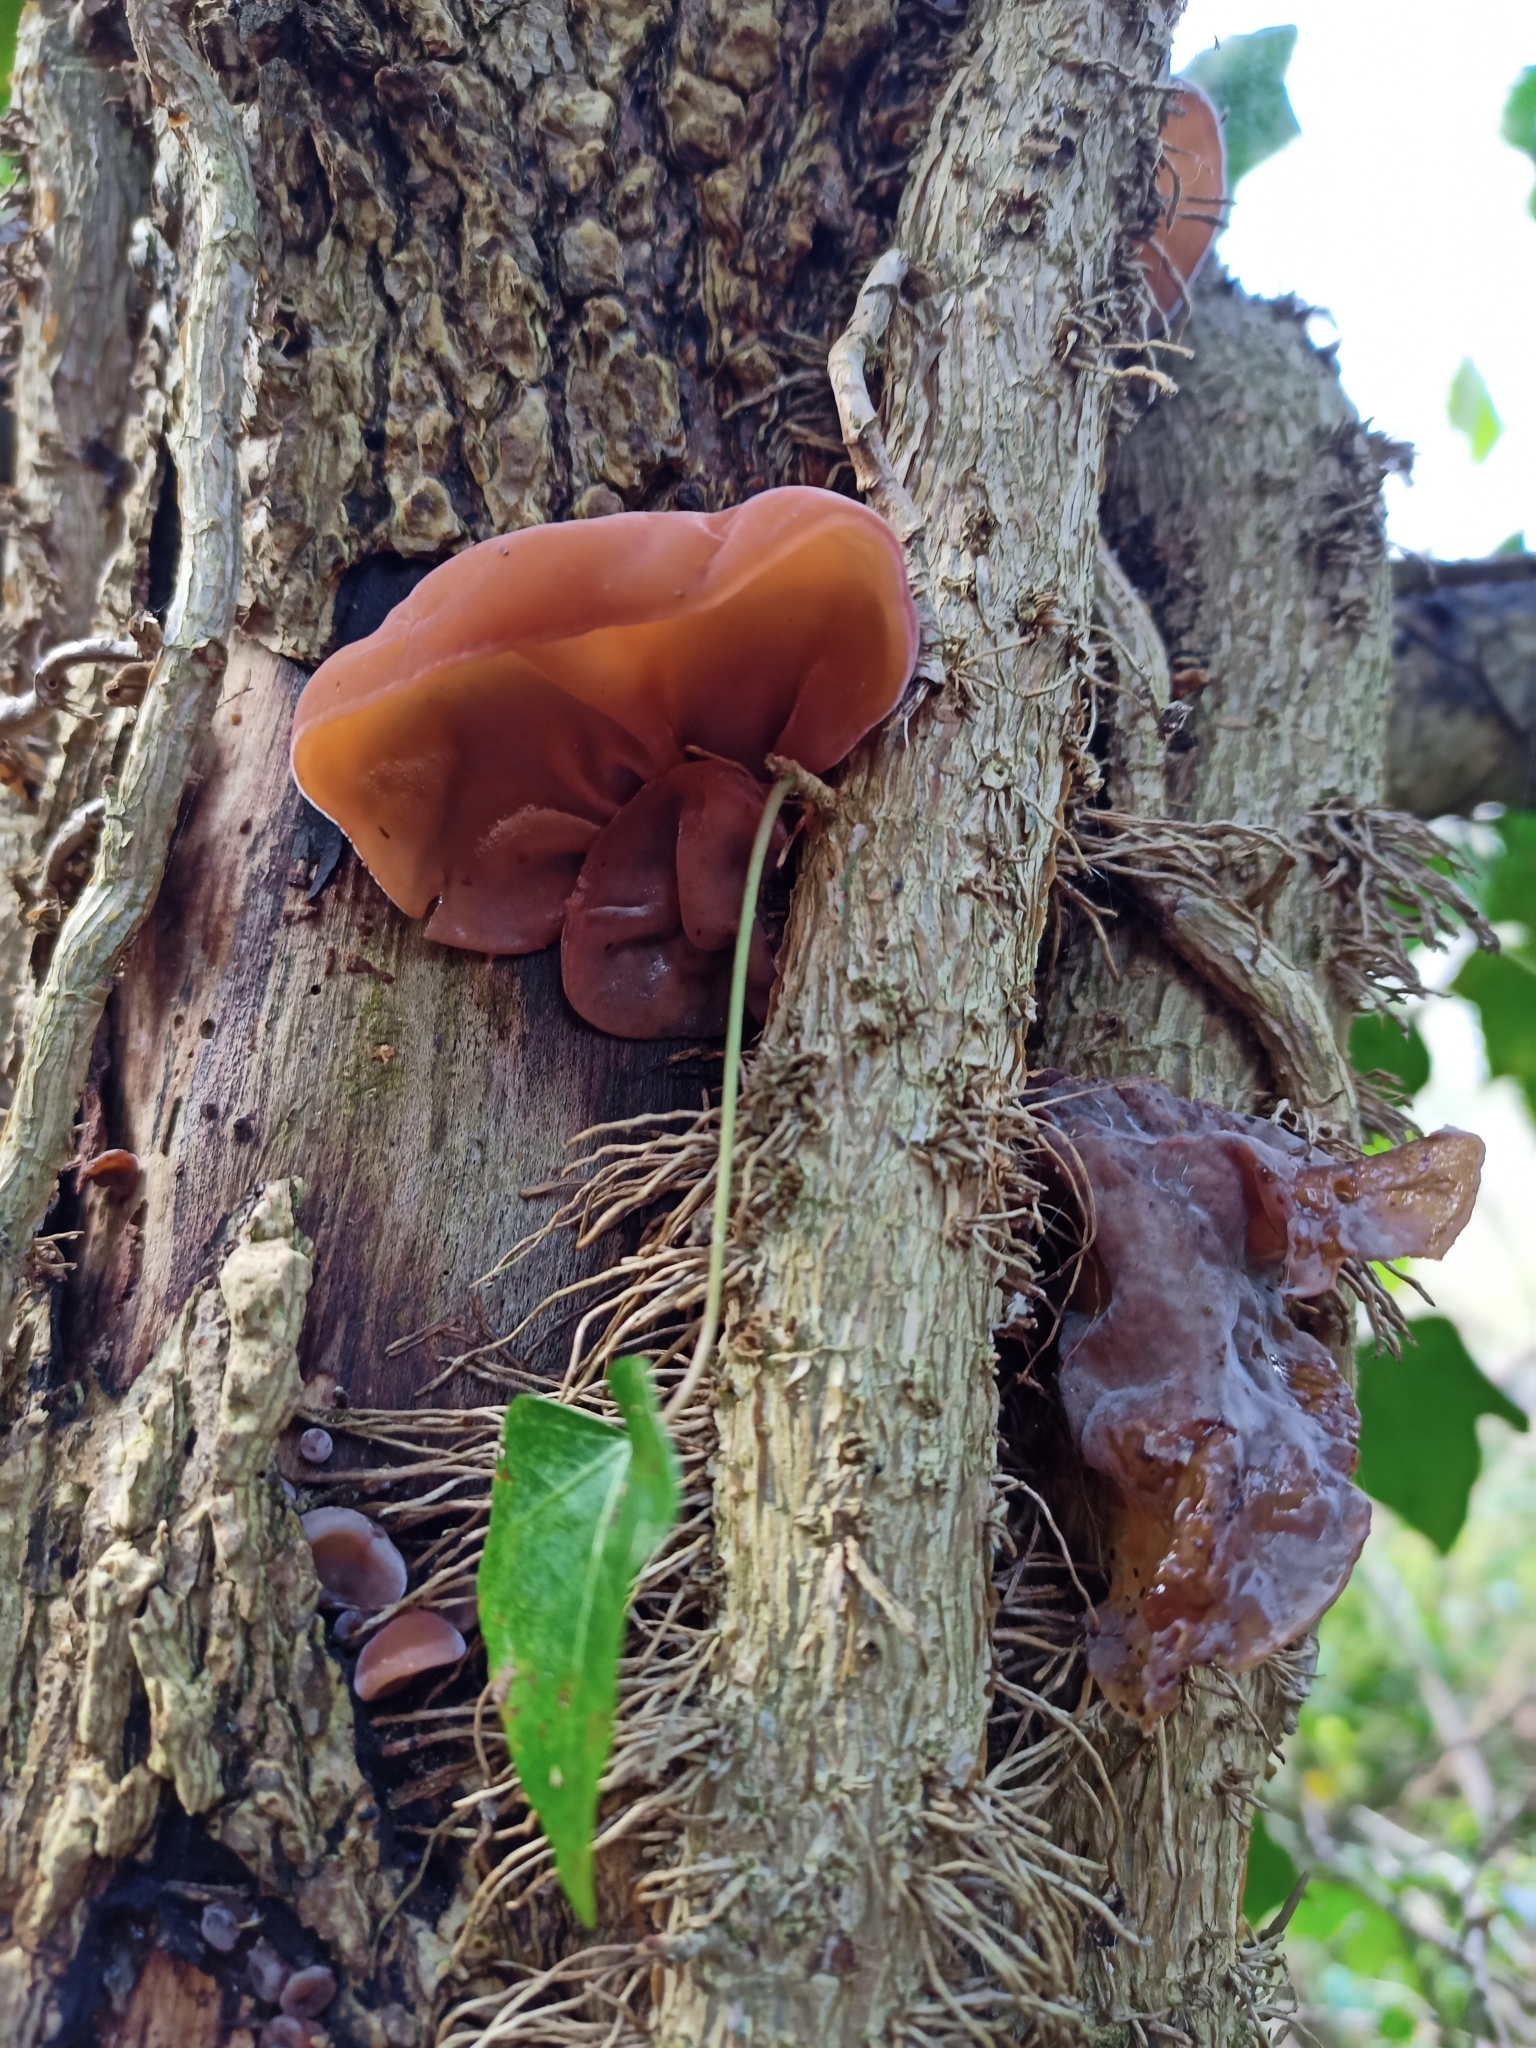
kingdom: Fungi
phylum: Basidiomycota
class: Agaricomycetes
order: Auriculariales
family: Auriculariaceae
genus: Auricularia
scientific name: Auricularia auricula-judae
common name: Jelly ear
